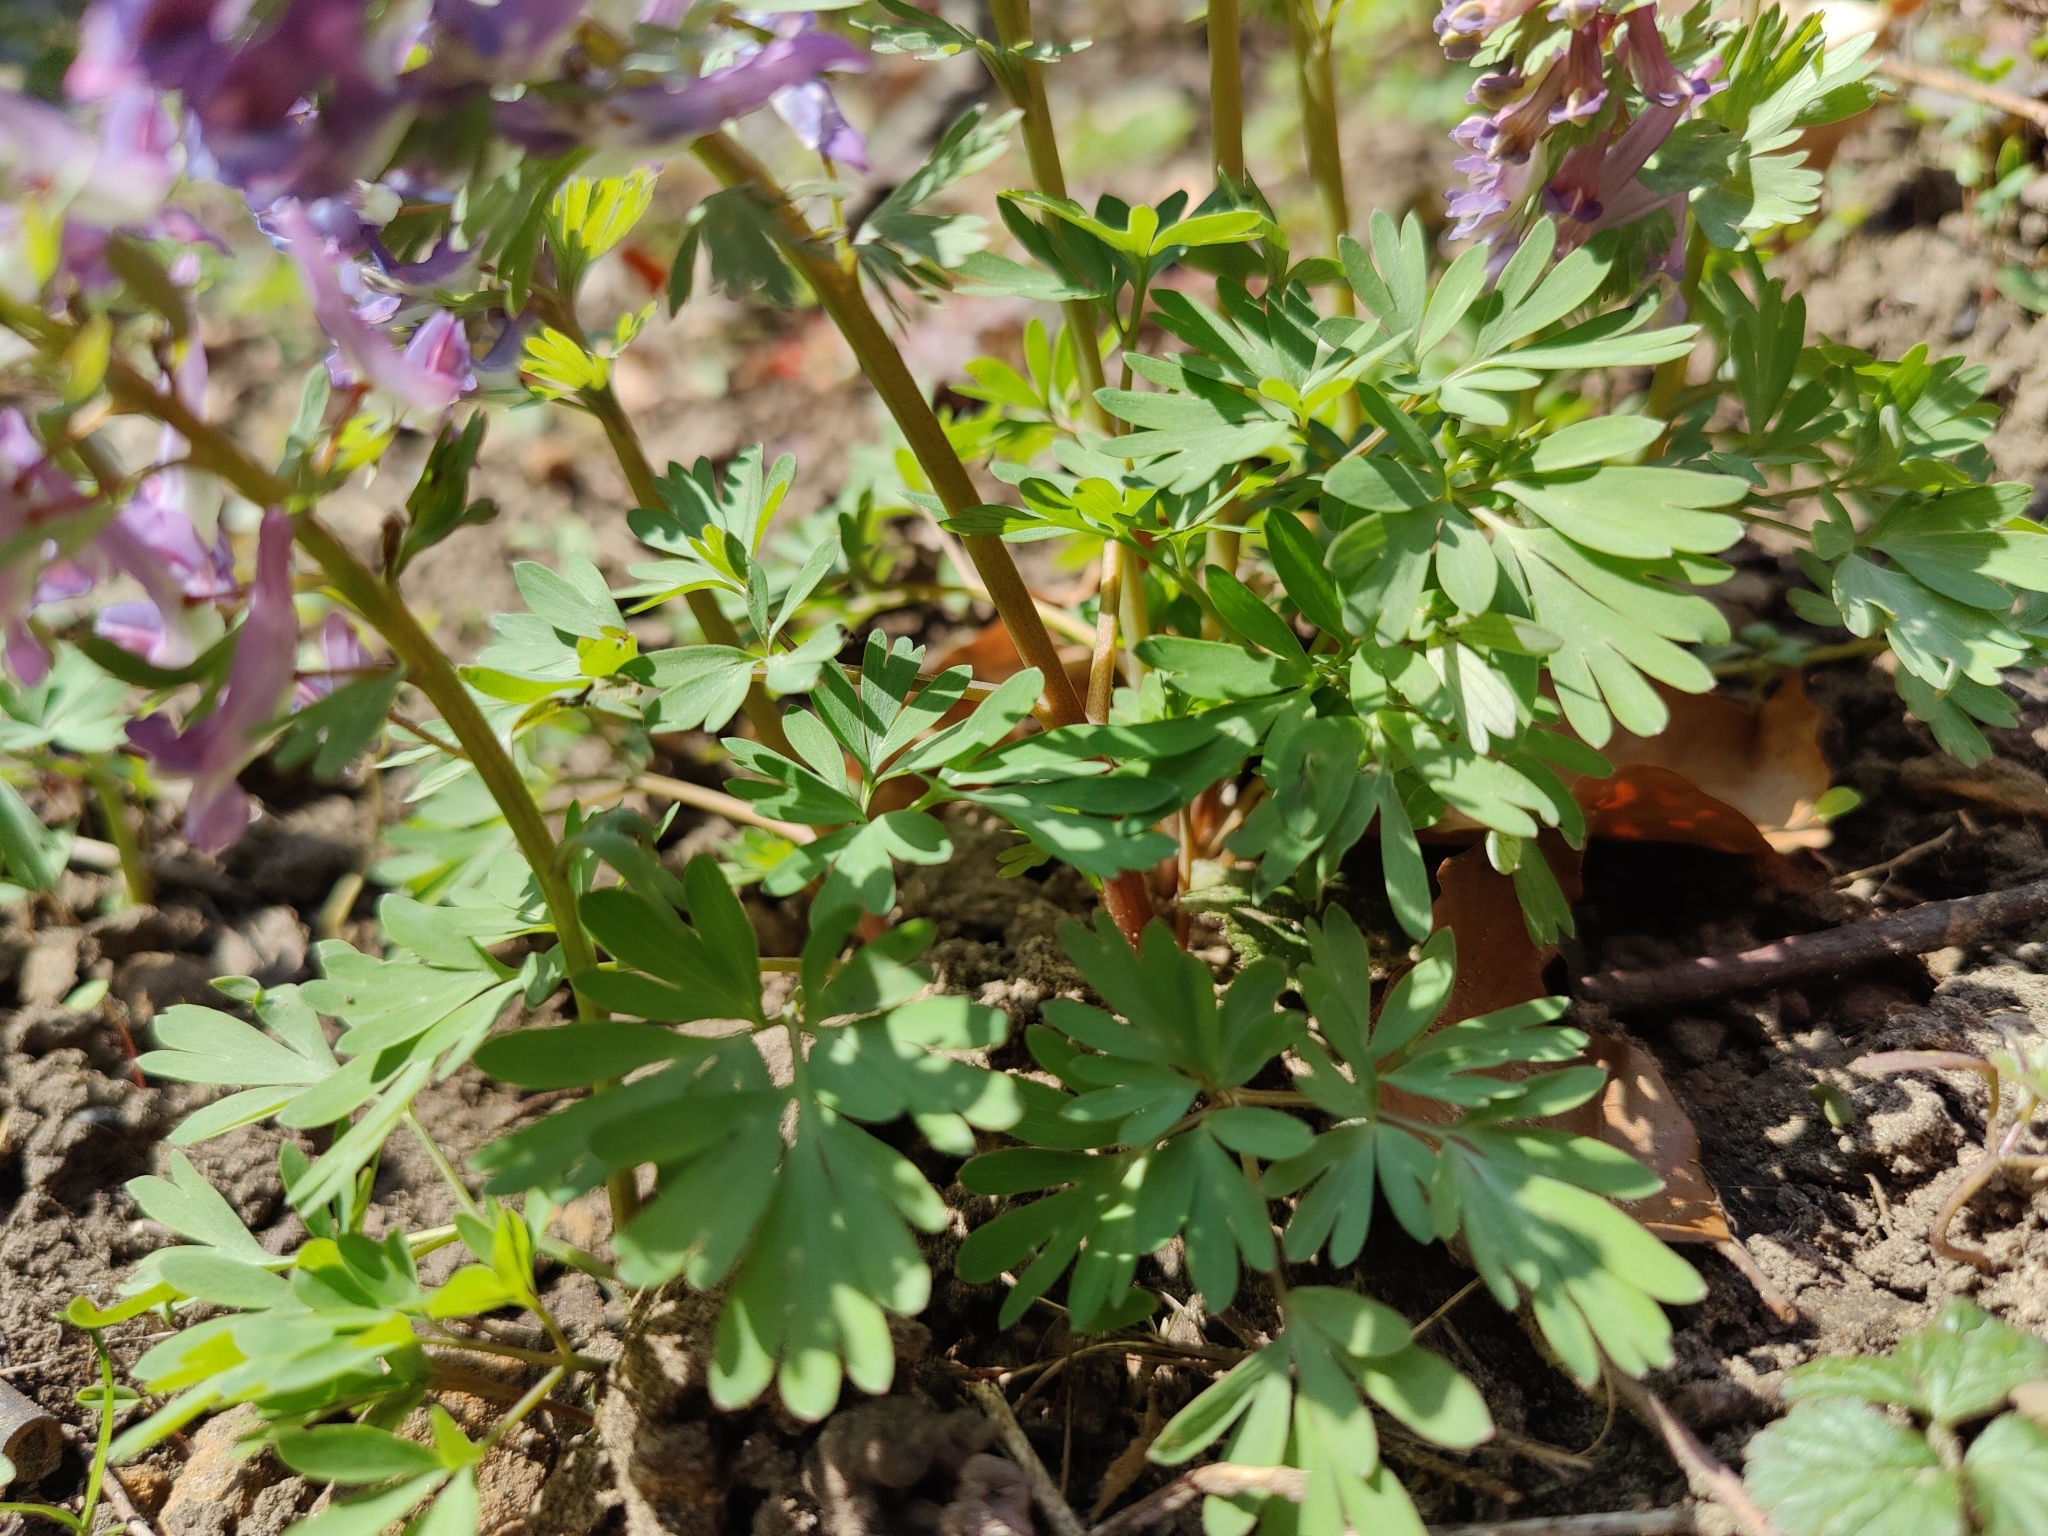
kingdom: Plantae
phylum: Tracheophyta
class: Magnoliopsida
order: Ranunculales
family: Papaveraceae
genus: Corydalis
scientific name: Corydalis solida
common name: Bird-in-a-bush
